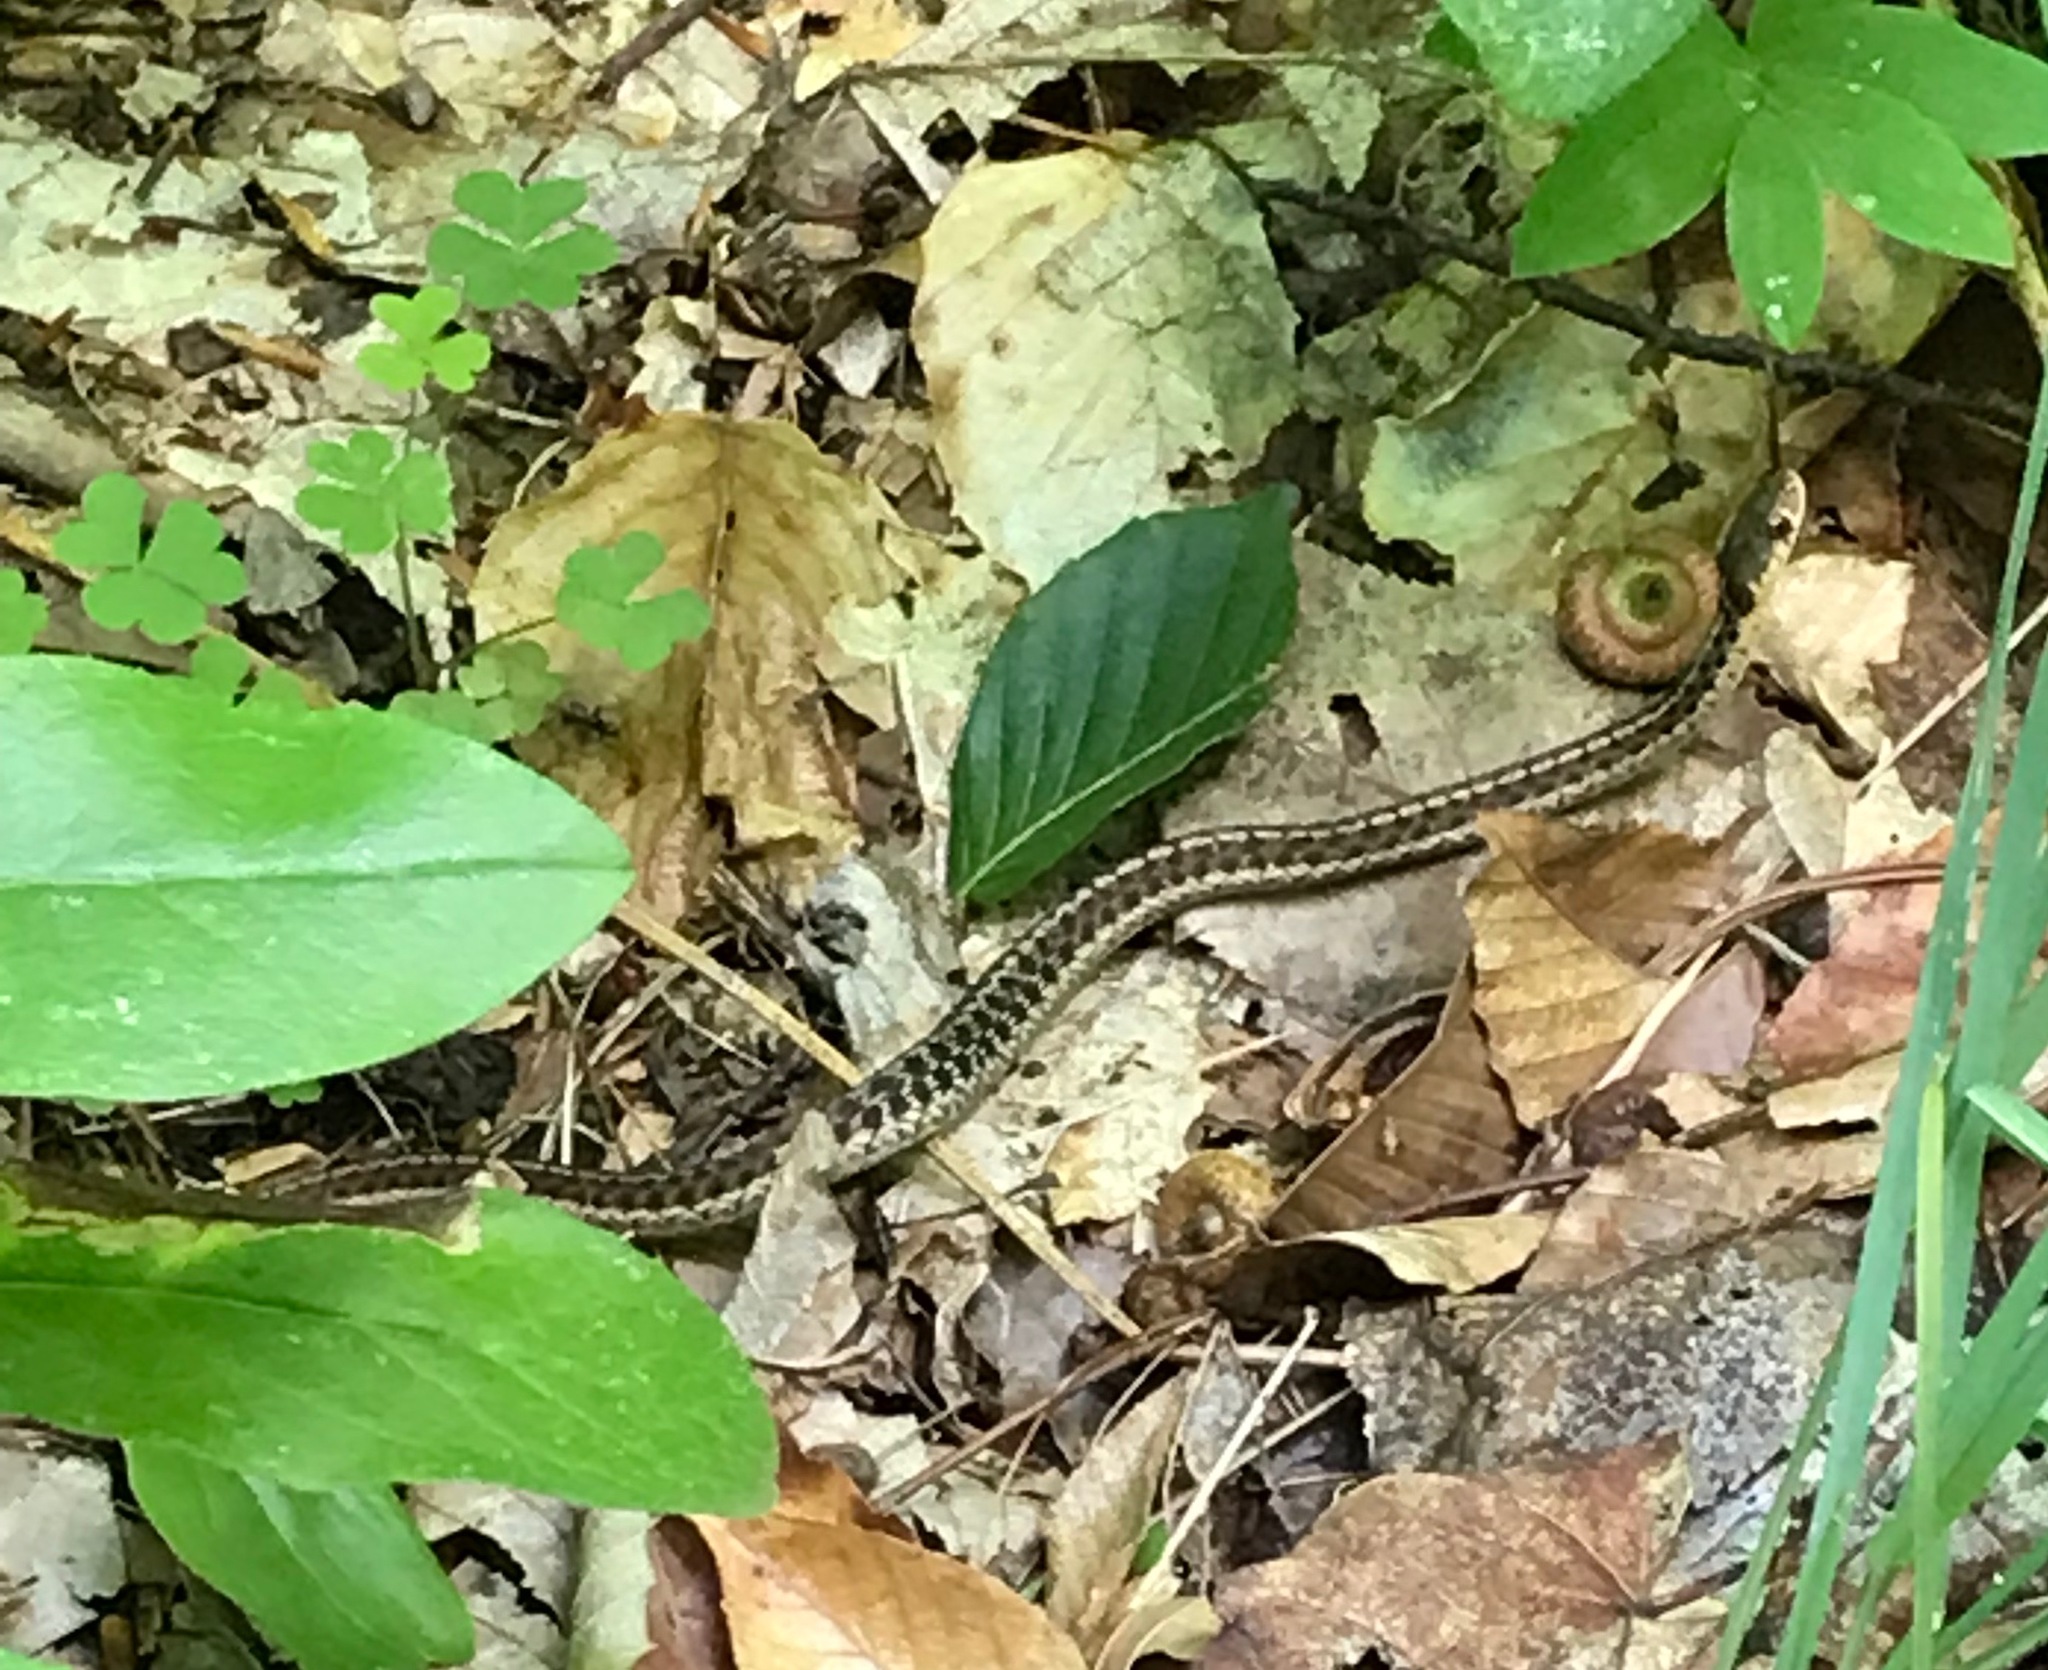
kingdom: Animalia
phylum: Chordata
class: Squamata
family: Colubridae
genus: Thamnophis
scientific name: Thamnophis sirtalis
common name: Common garter snake
